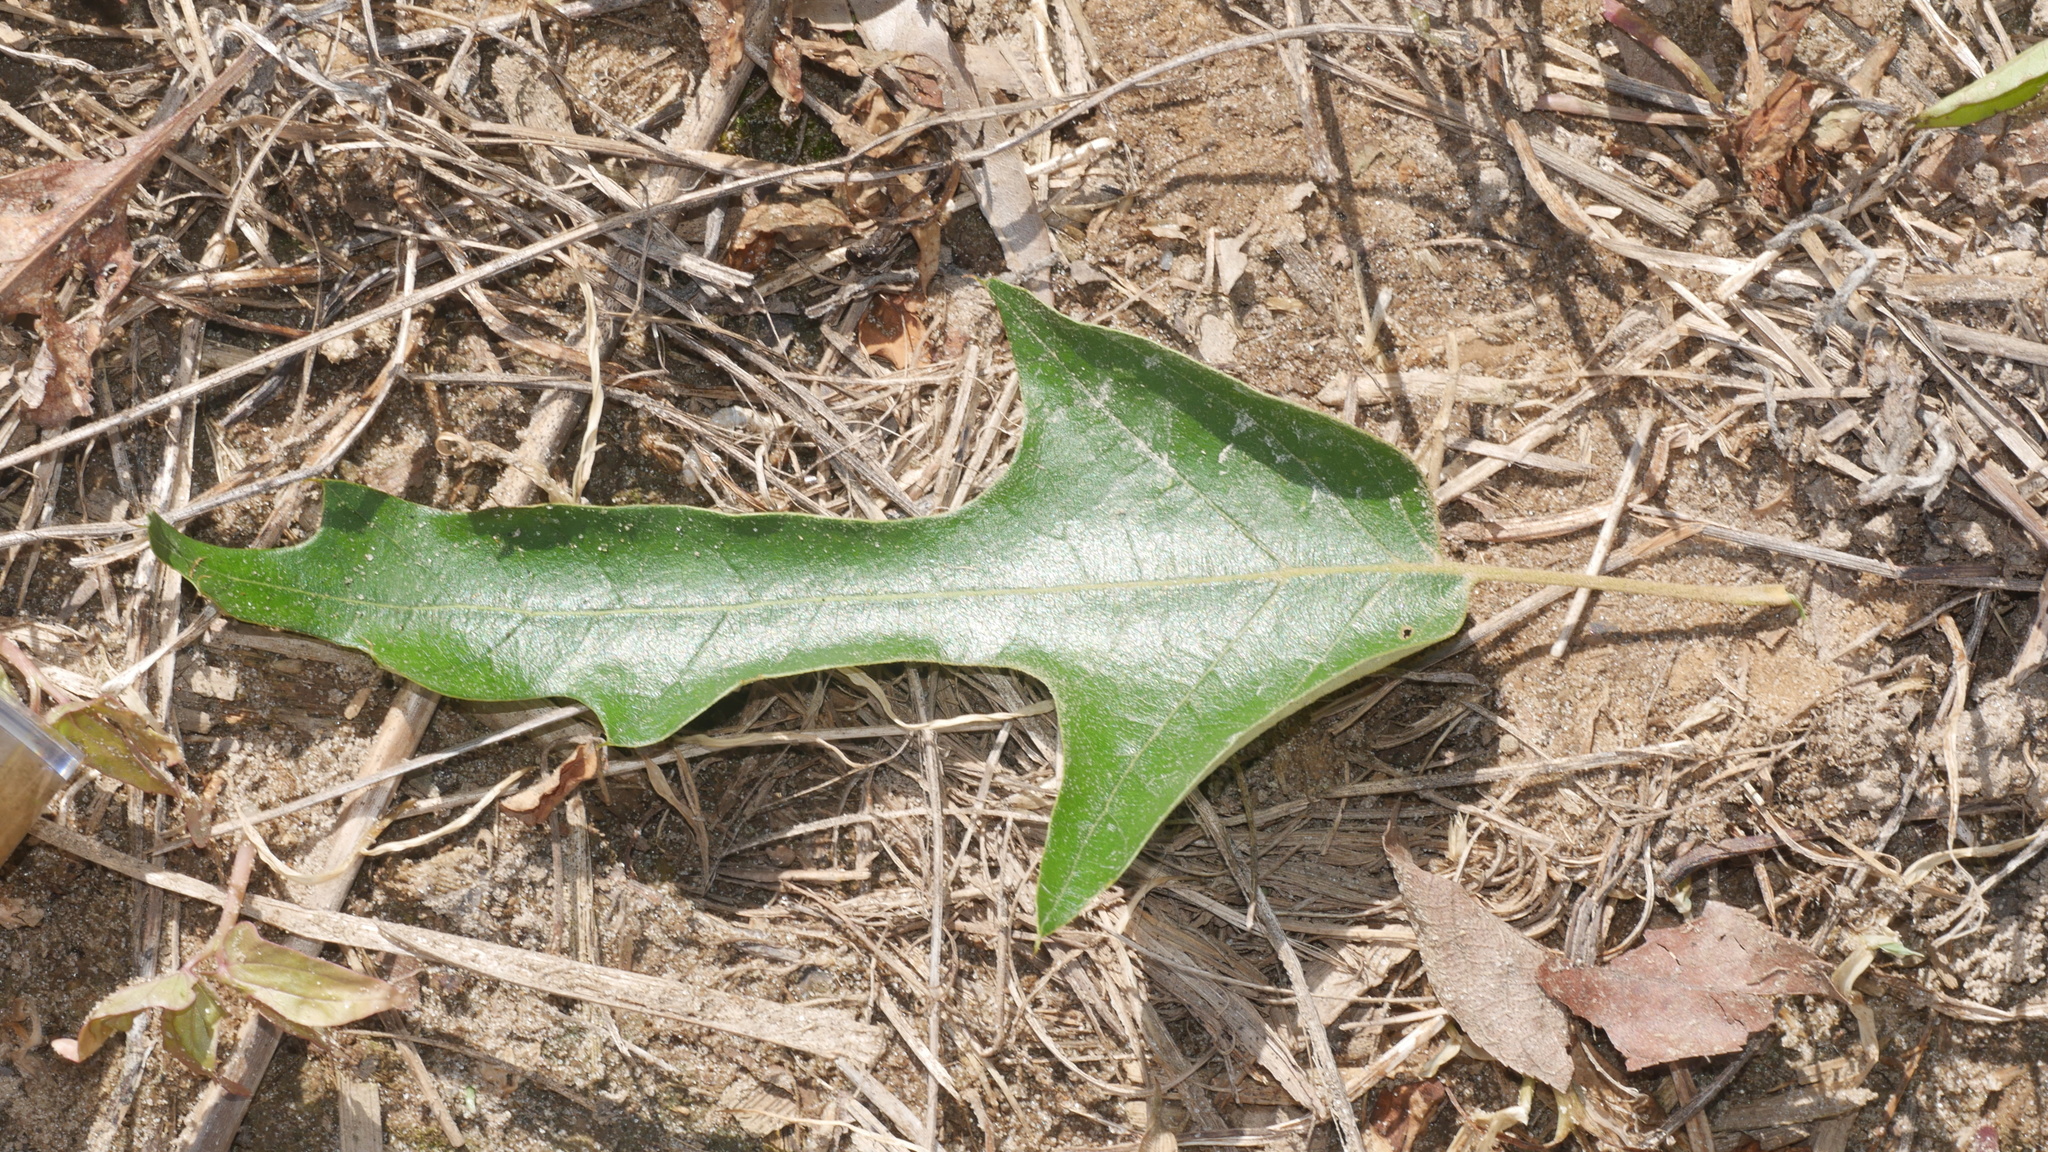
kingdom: Plantae
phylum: Tracheophyta
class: Magnoliopsida
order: Fagales
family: Fagaceae
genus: Quercus
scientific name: Quercus falcata
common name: Southern red oak
